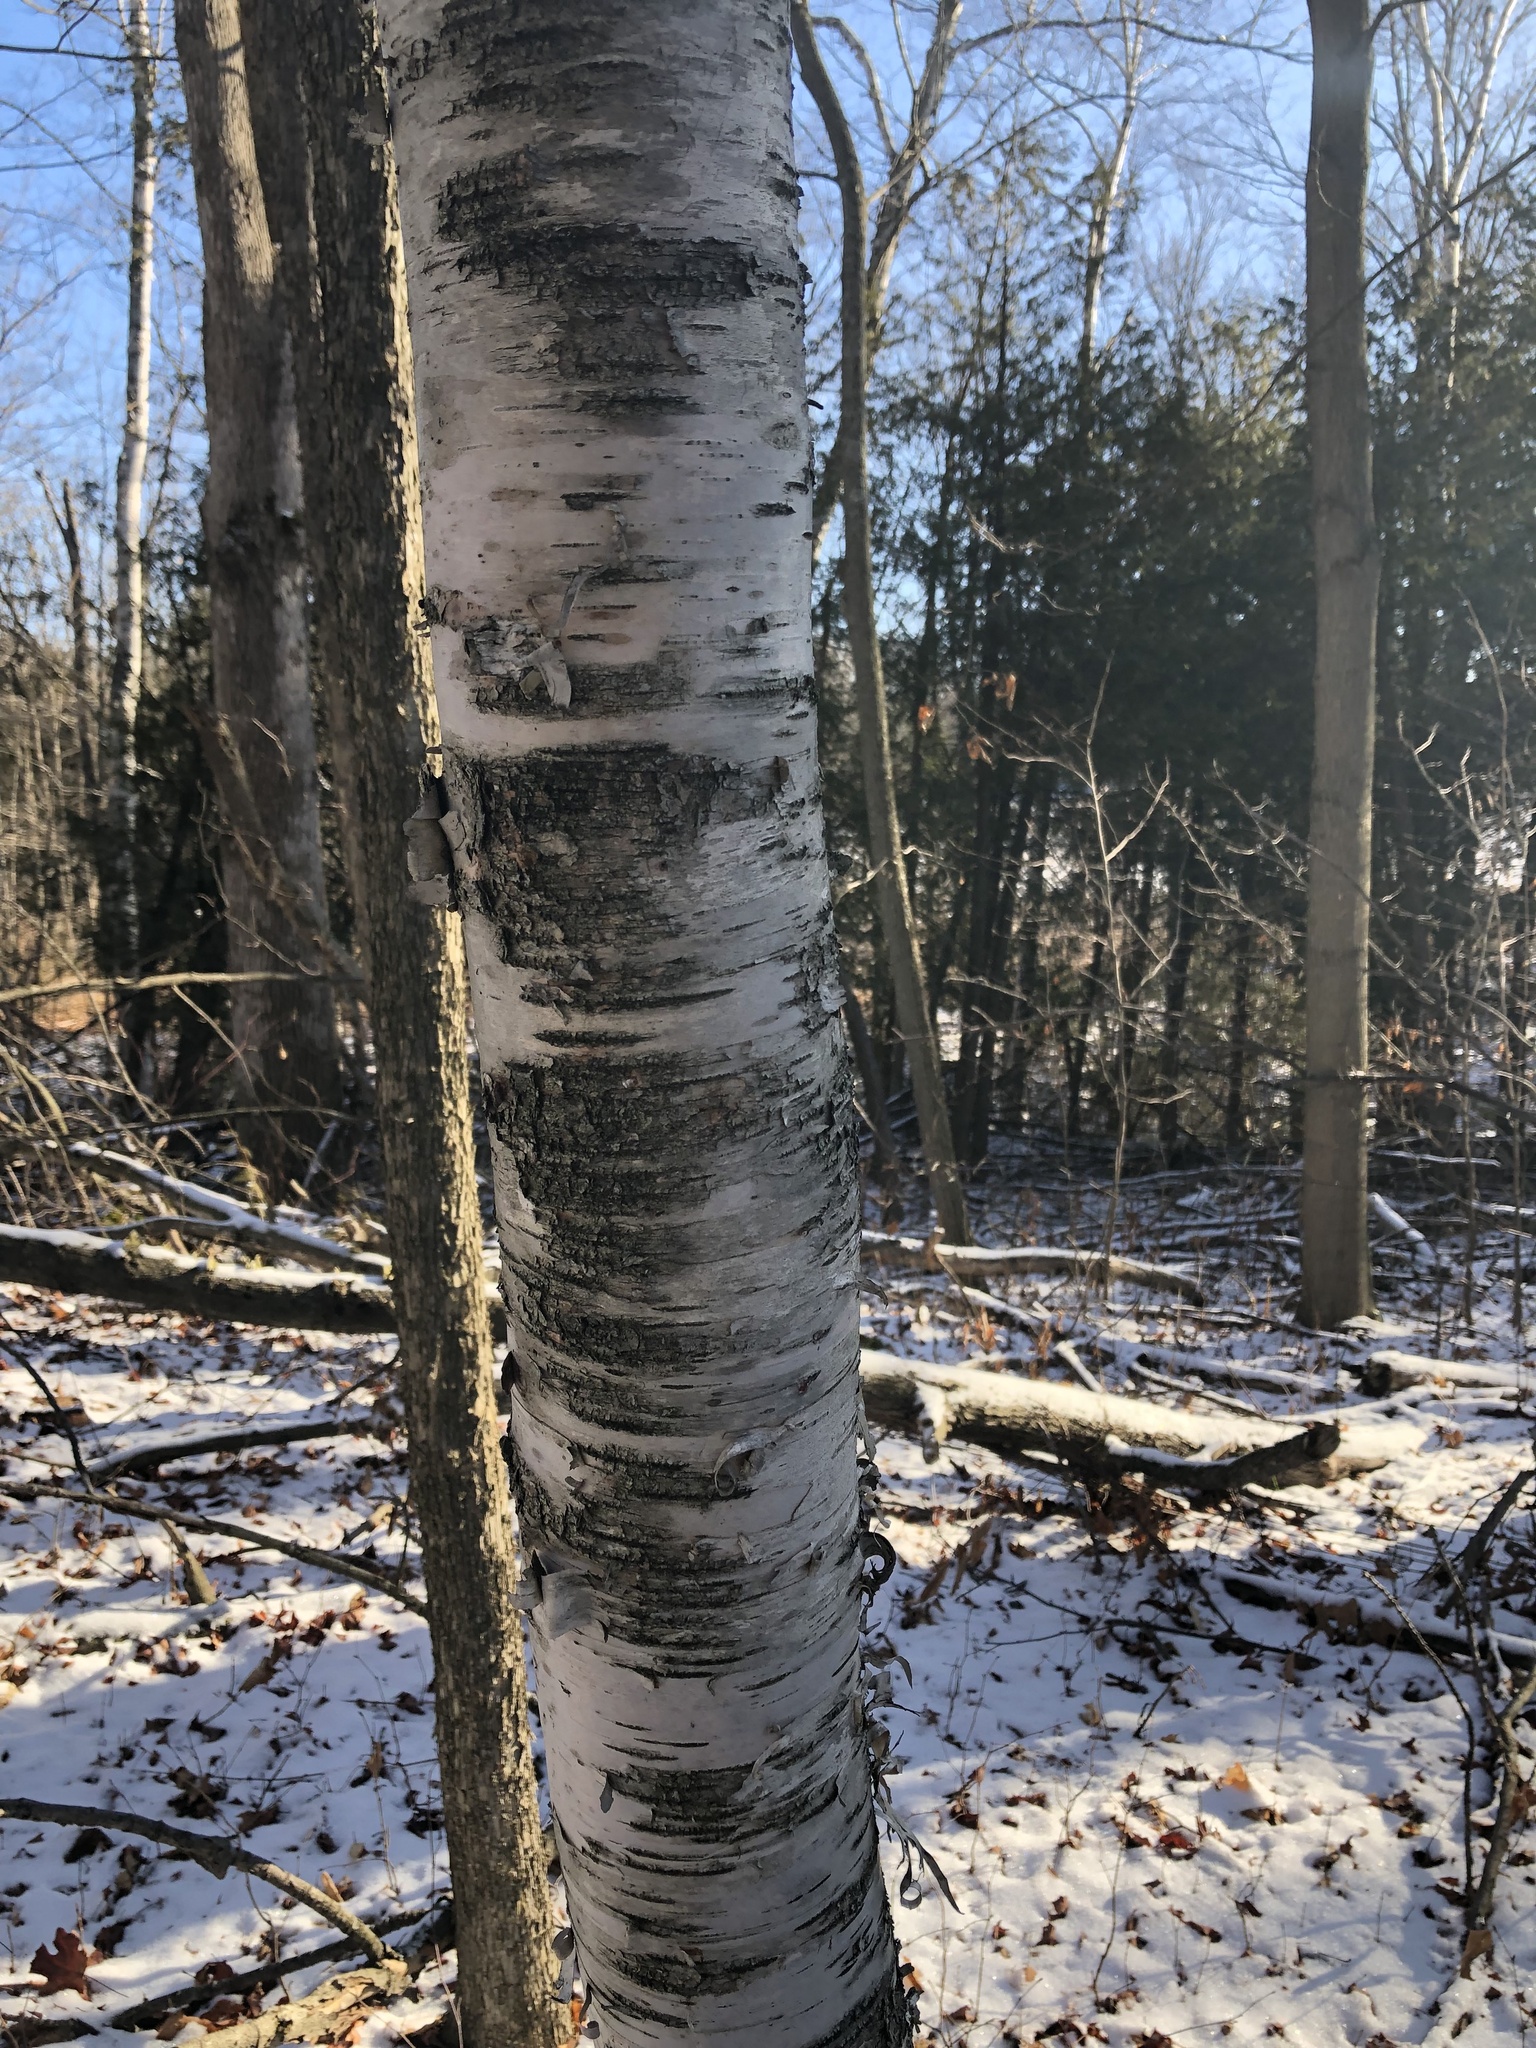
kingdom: Plantae
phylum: Tracheophyta
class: Magnoliopsida
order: Fagales
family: Betulaceae
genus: Betula
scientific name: Betula papyrifera
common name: Paper birch
